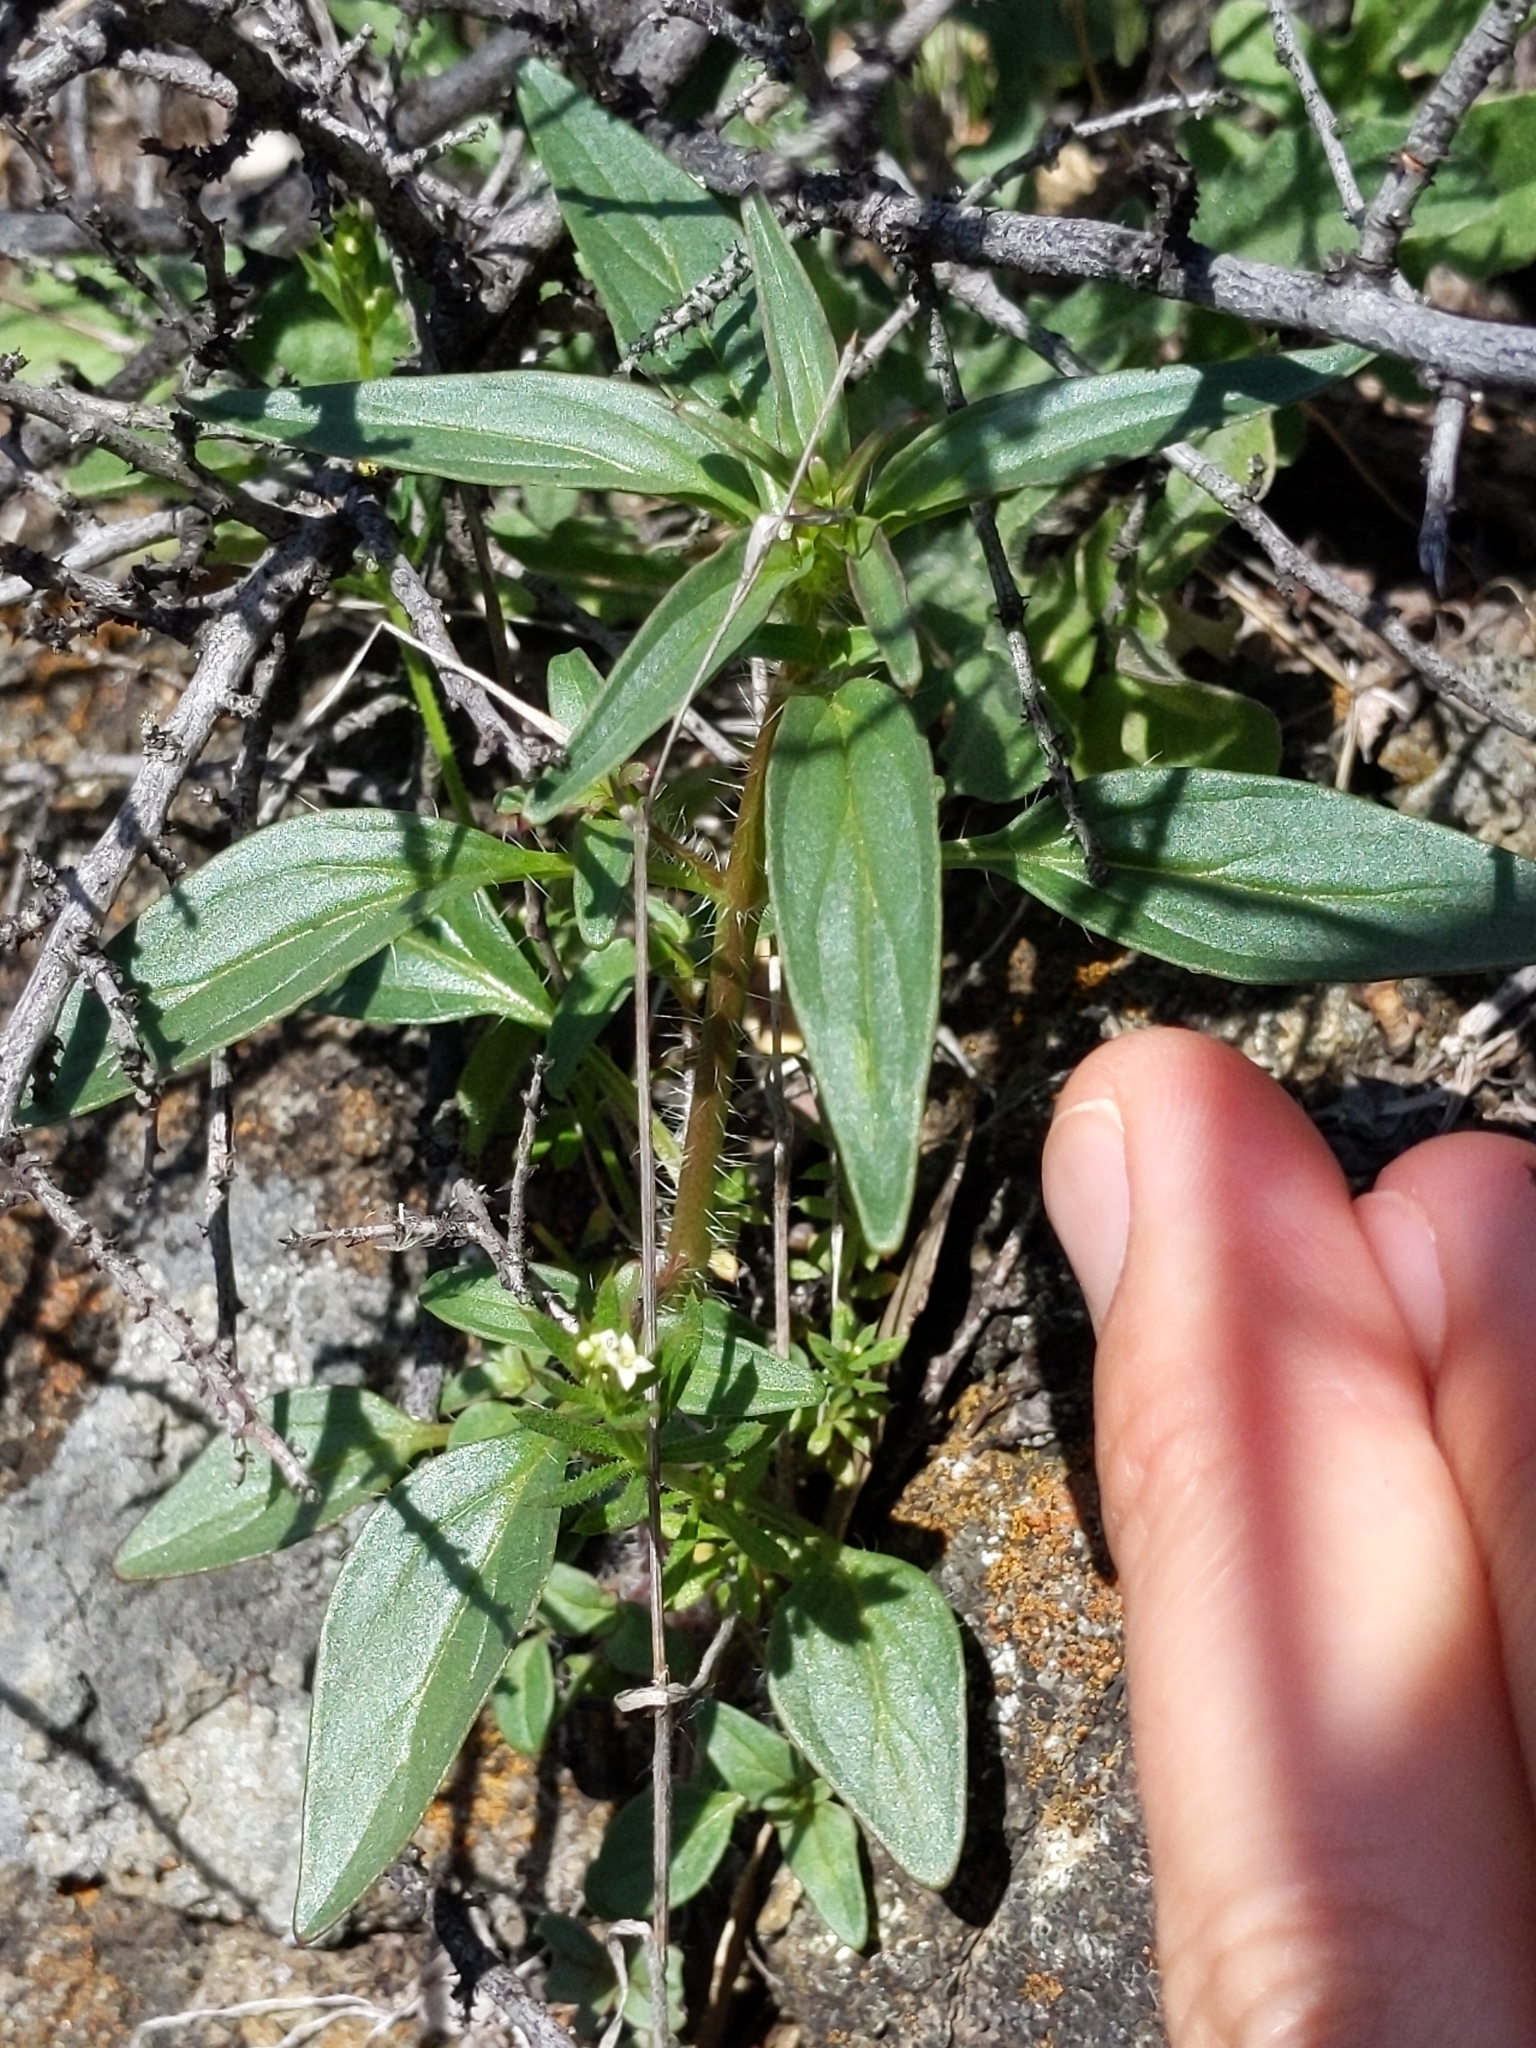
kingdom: Plantae
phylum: Tracheophyta
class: Magnoliopsida
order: Lamiales
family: Plantaginaceae
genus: Sairocarpus
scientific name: Sairocarpus vexillocalyculatus
